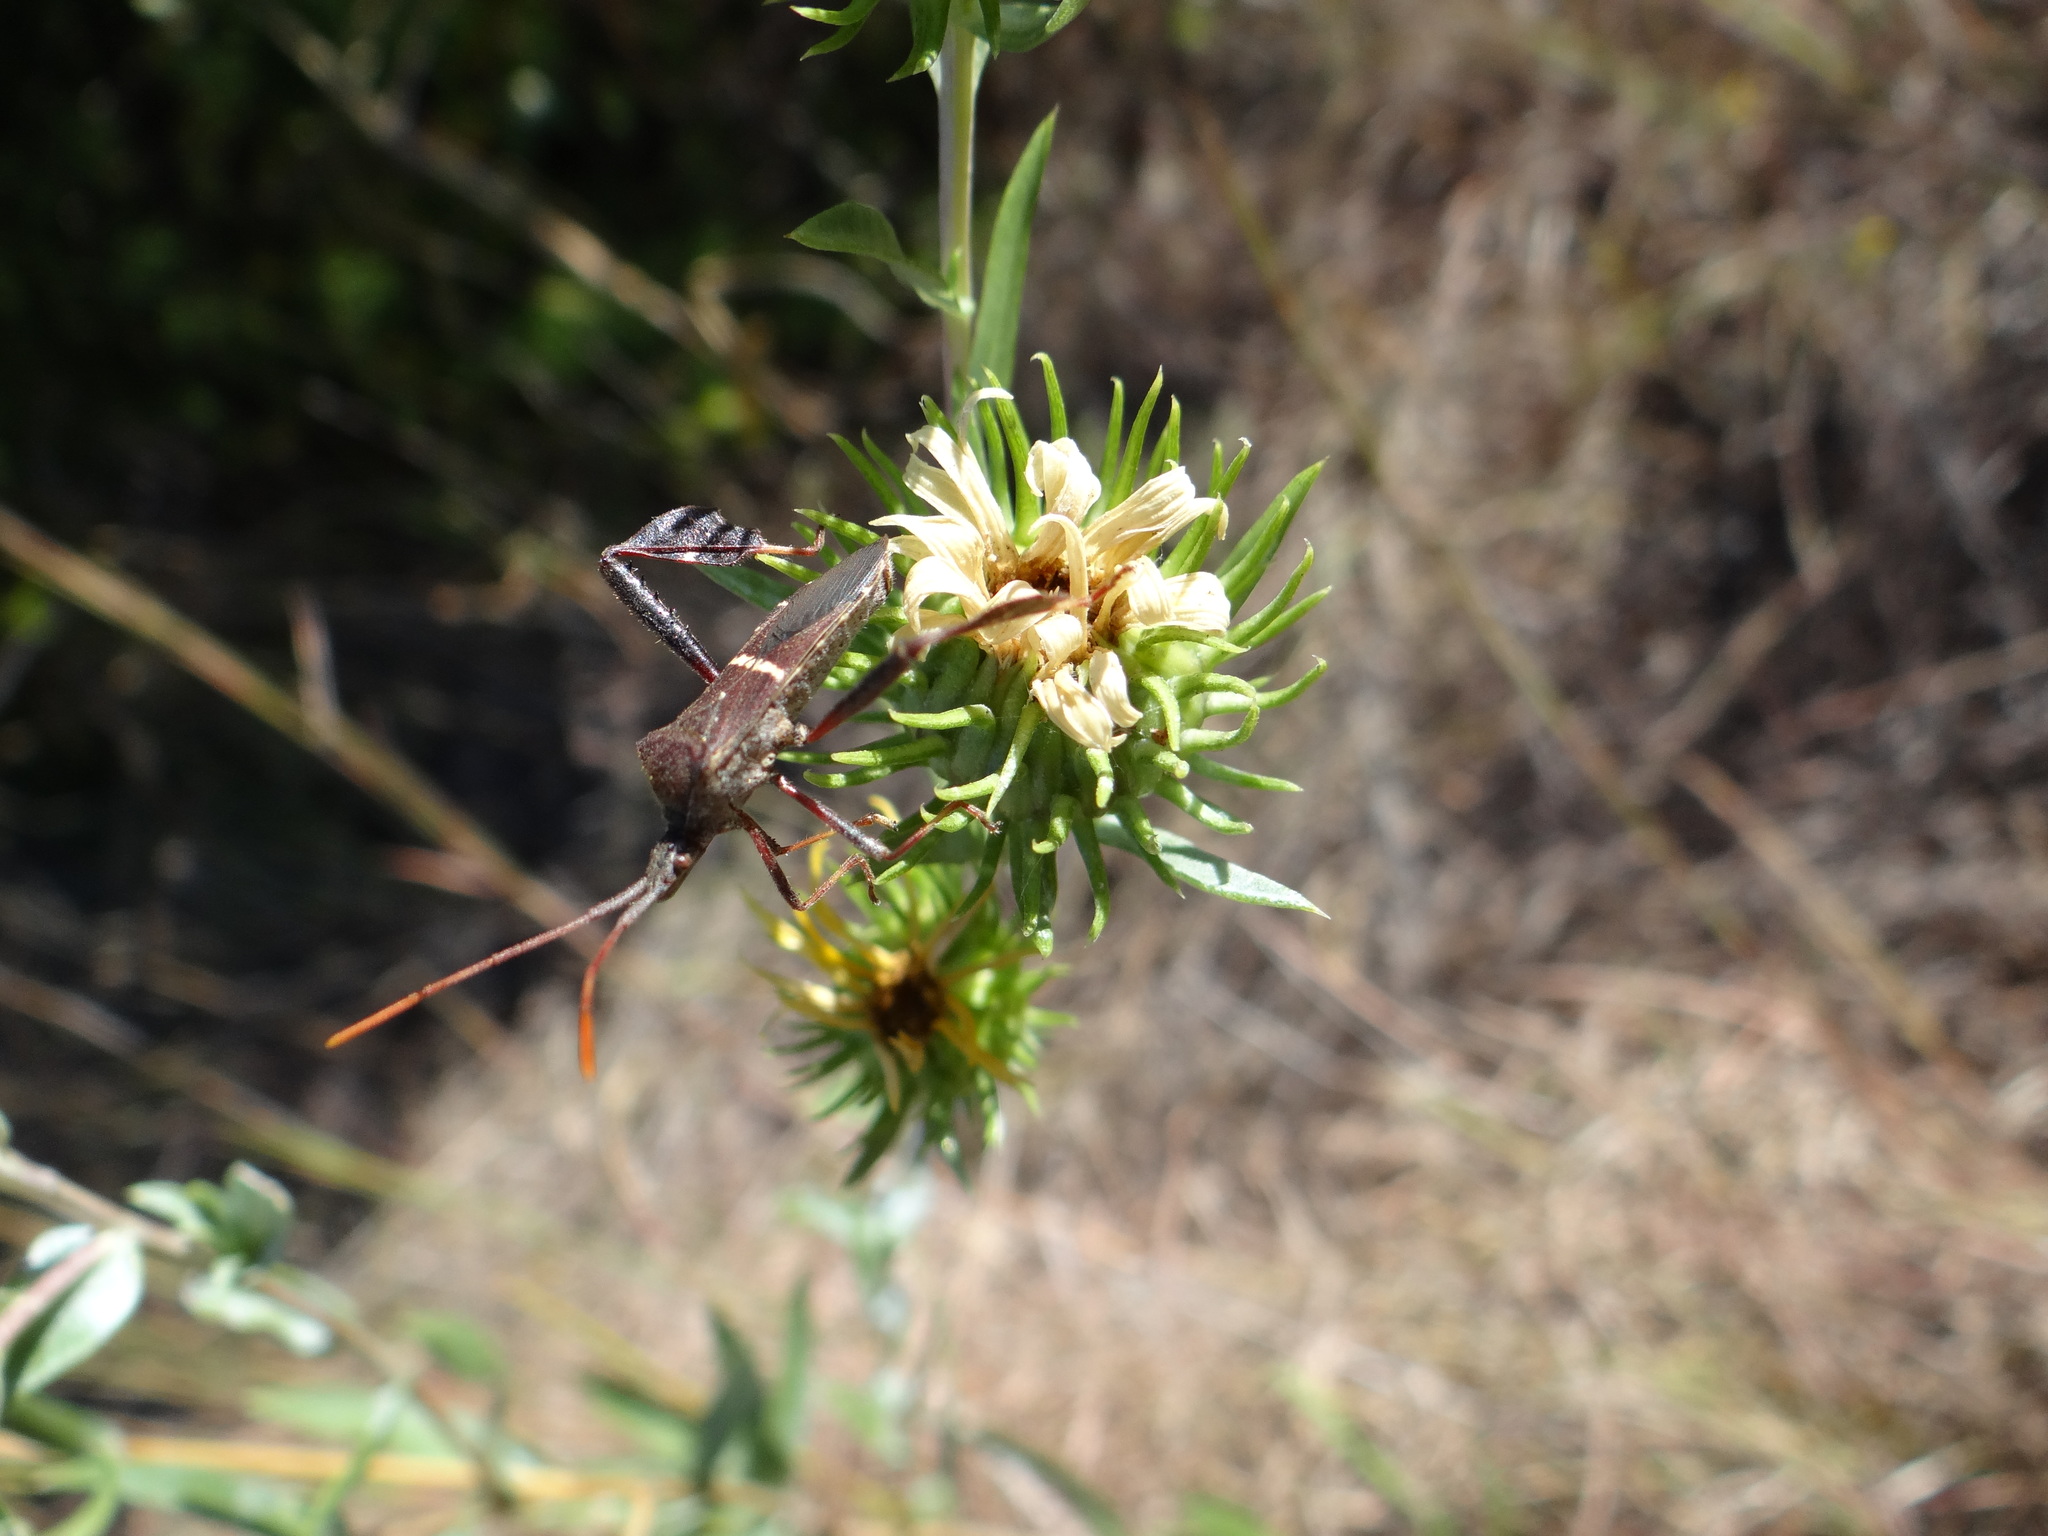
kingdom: Animalia
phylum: Arthropoda
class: Insecta
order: Hemiptera
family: Coreidae
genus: Leptoglossus
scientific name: Leptoglossus phyllopus
